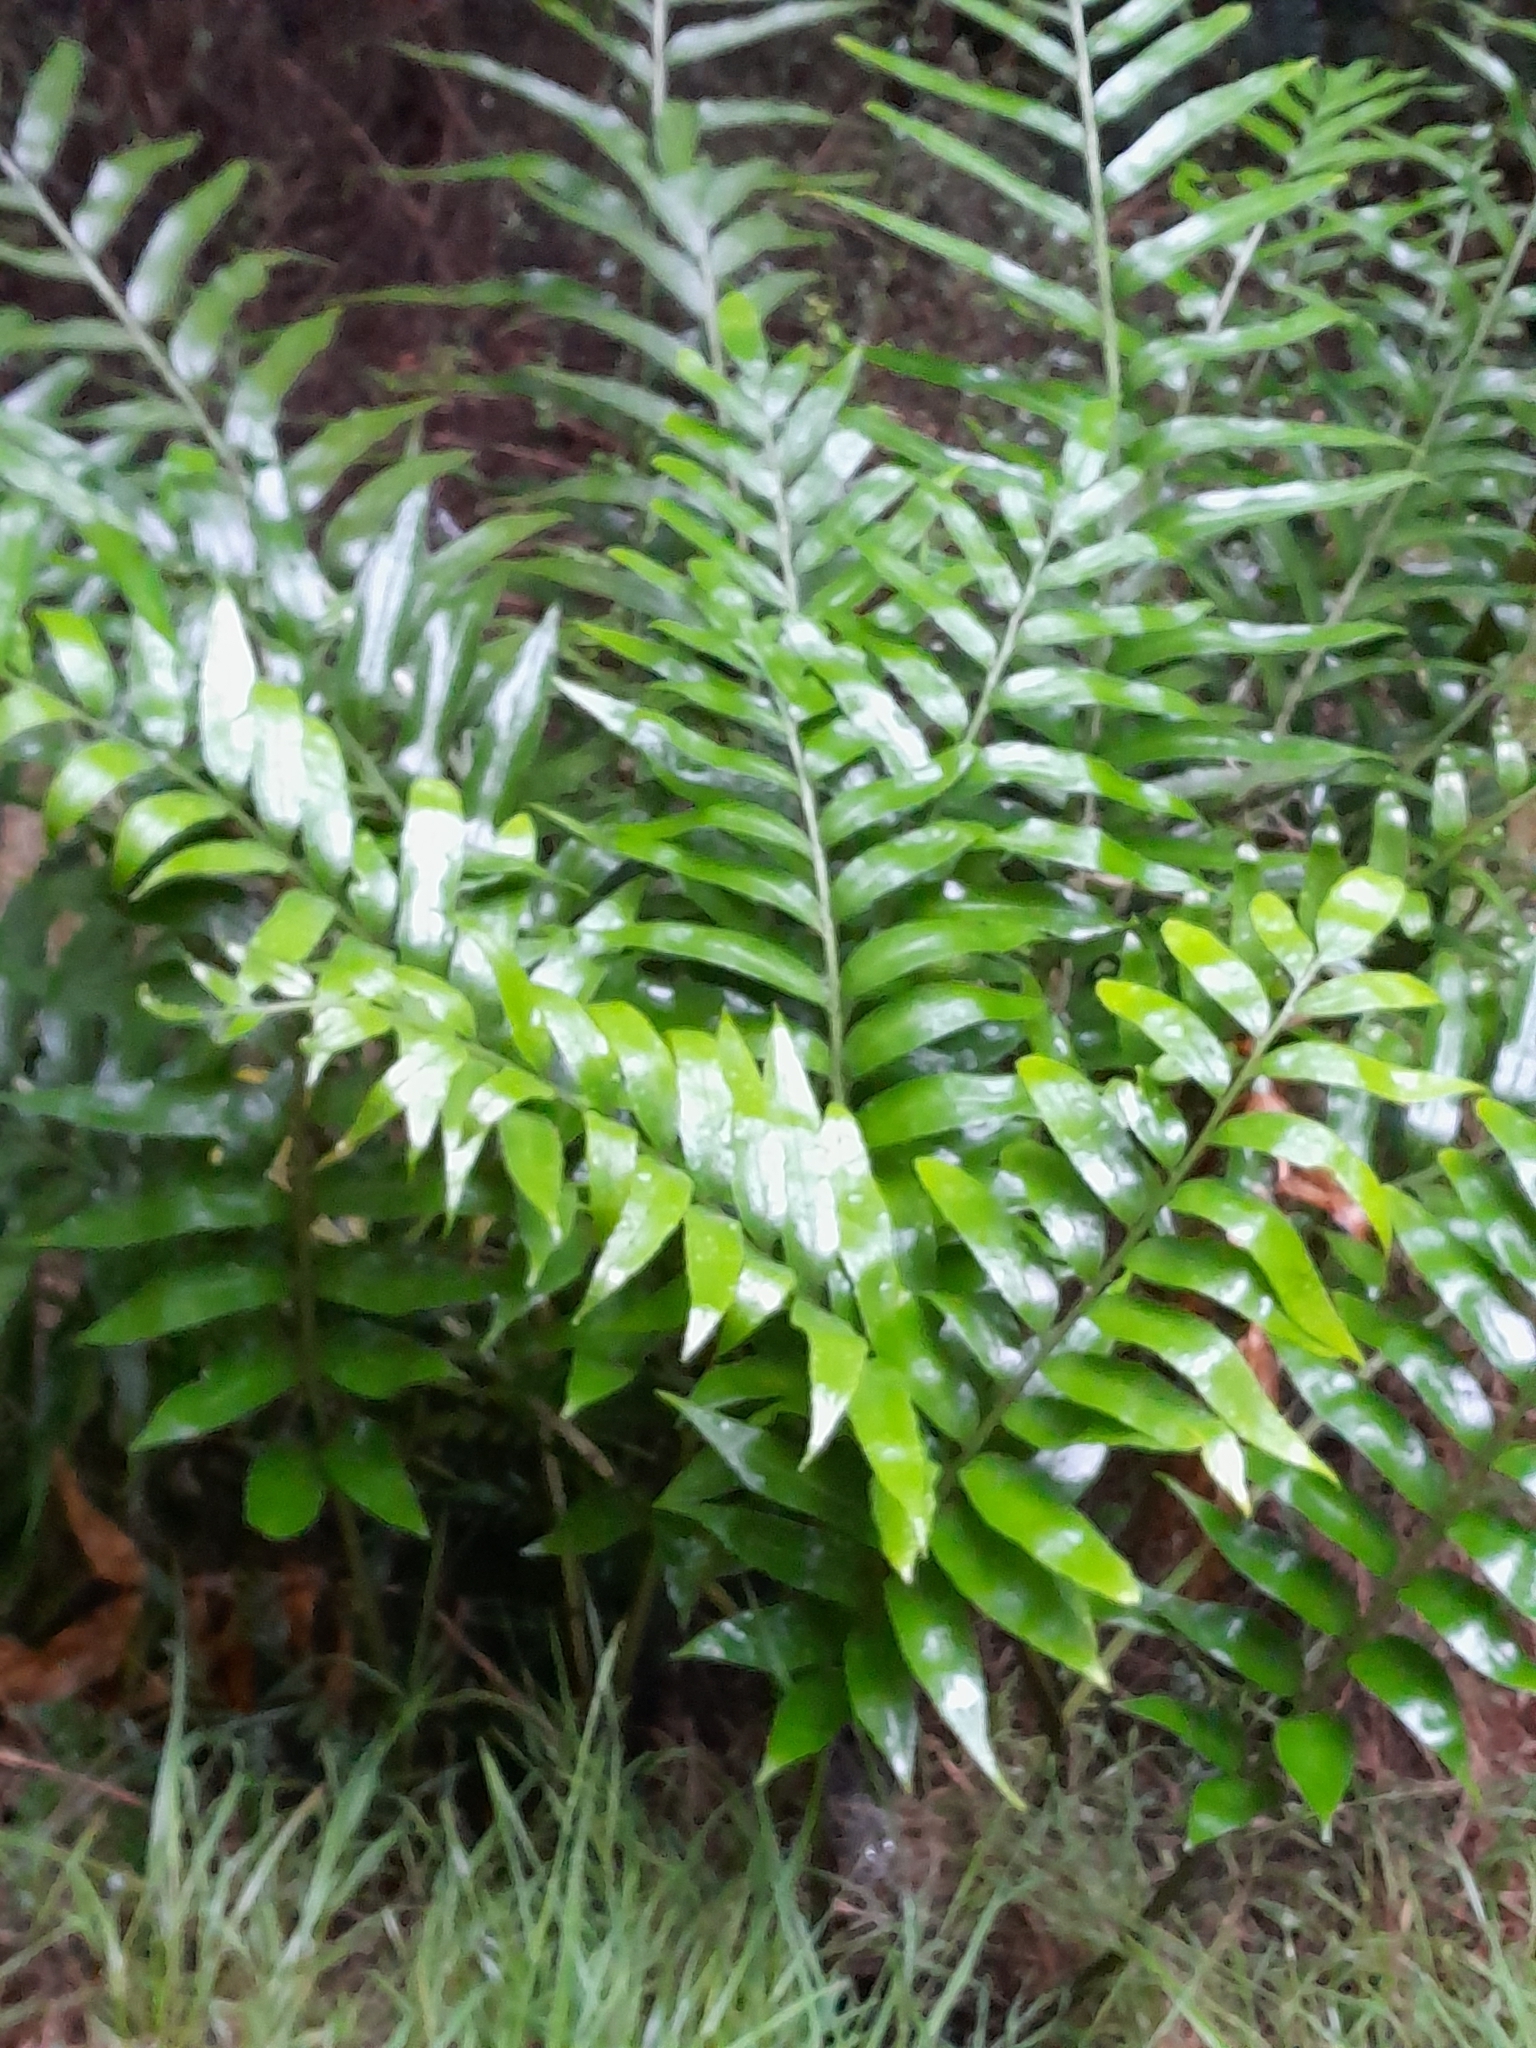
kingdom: Plantae
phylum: Tracheophyta
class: Polypodiopsida
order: Polypodiales
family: Aspleniaceae
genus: Asplenium
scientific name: Asplenium oblongifolium
